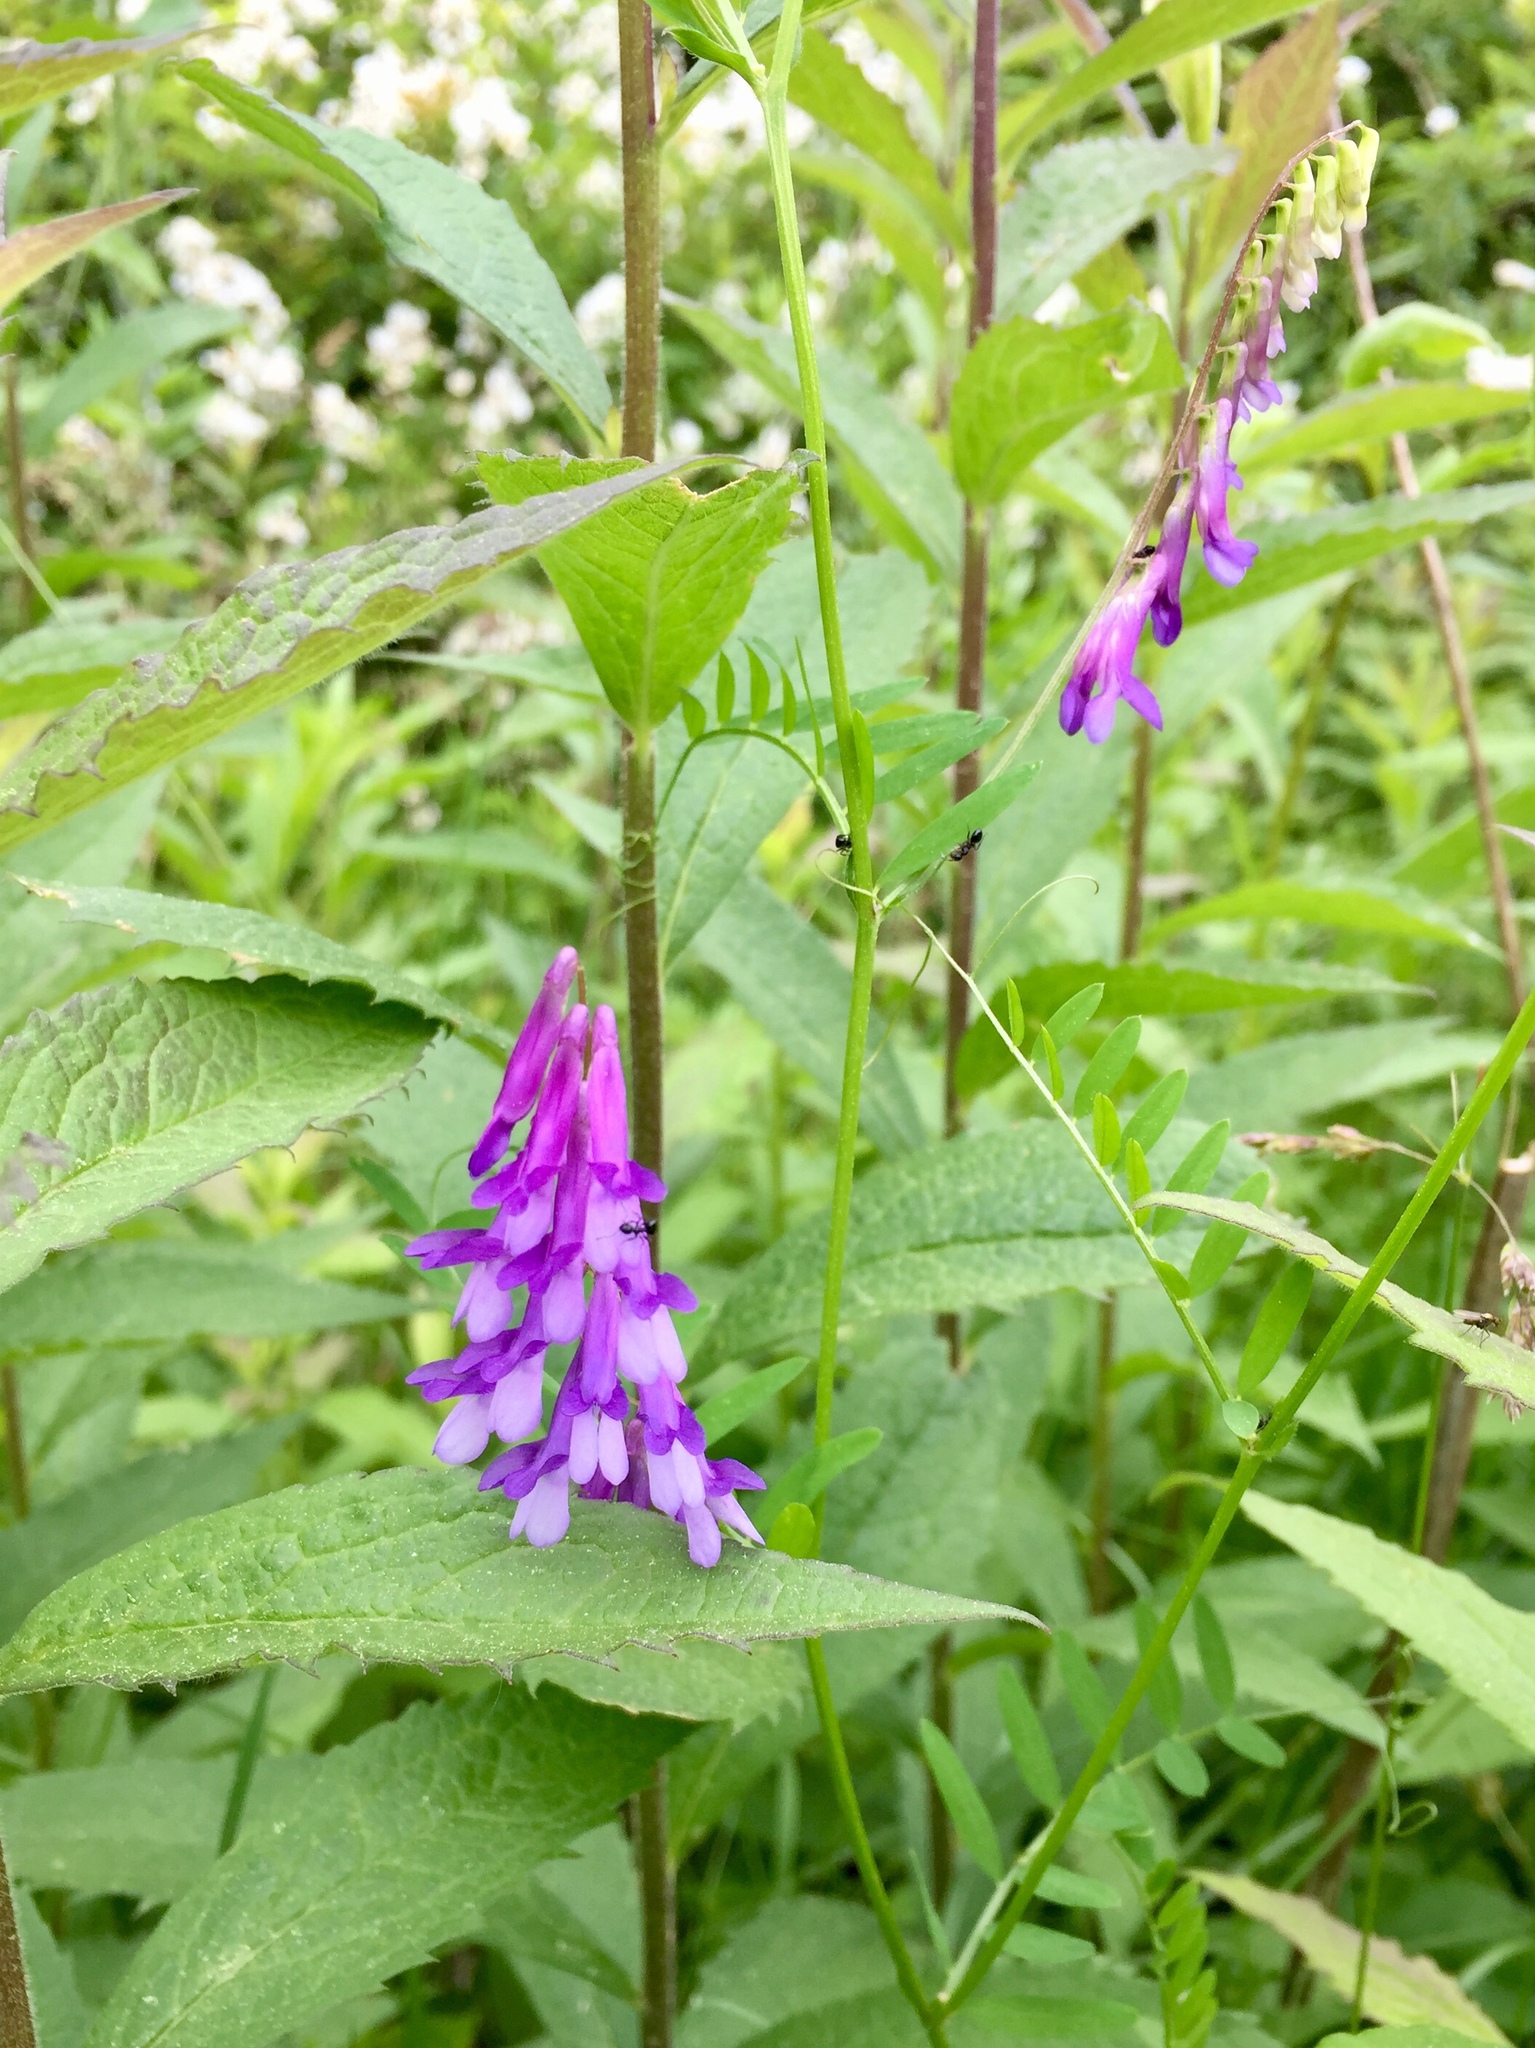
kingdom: Plantae
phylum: Tracheophyta
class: Magnoliopsida
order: Fabales
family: Fabaceae
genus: Vicia
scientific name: Vicia villosa
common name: Fodder vetch
